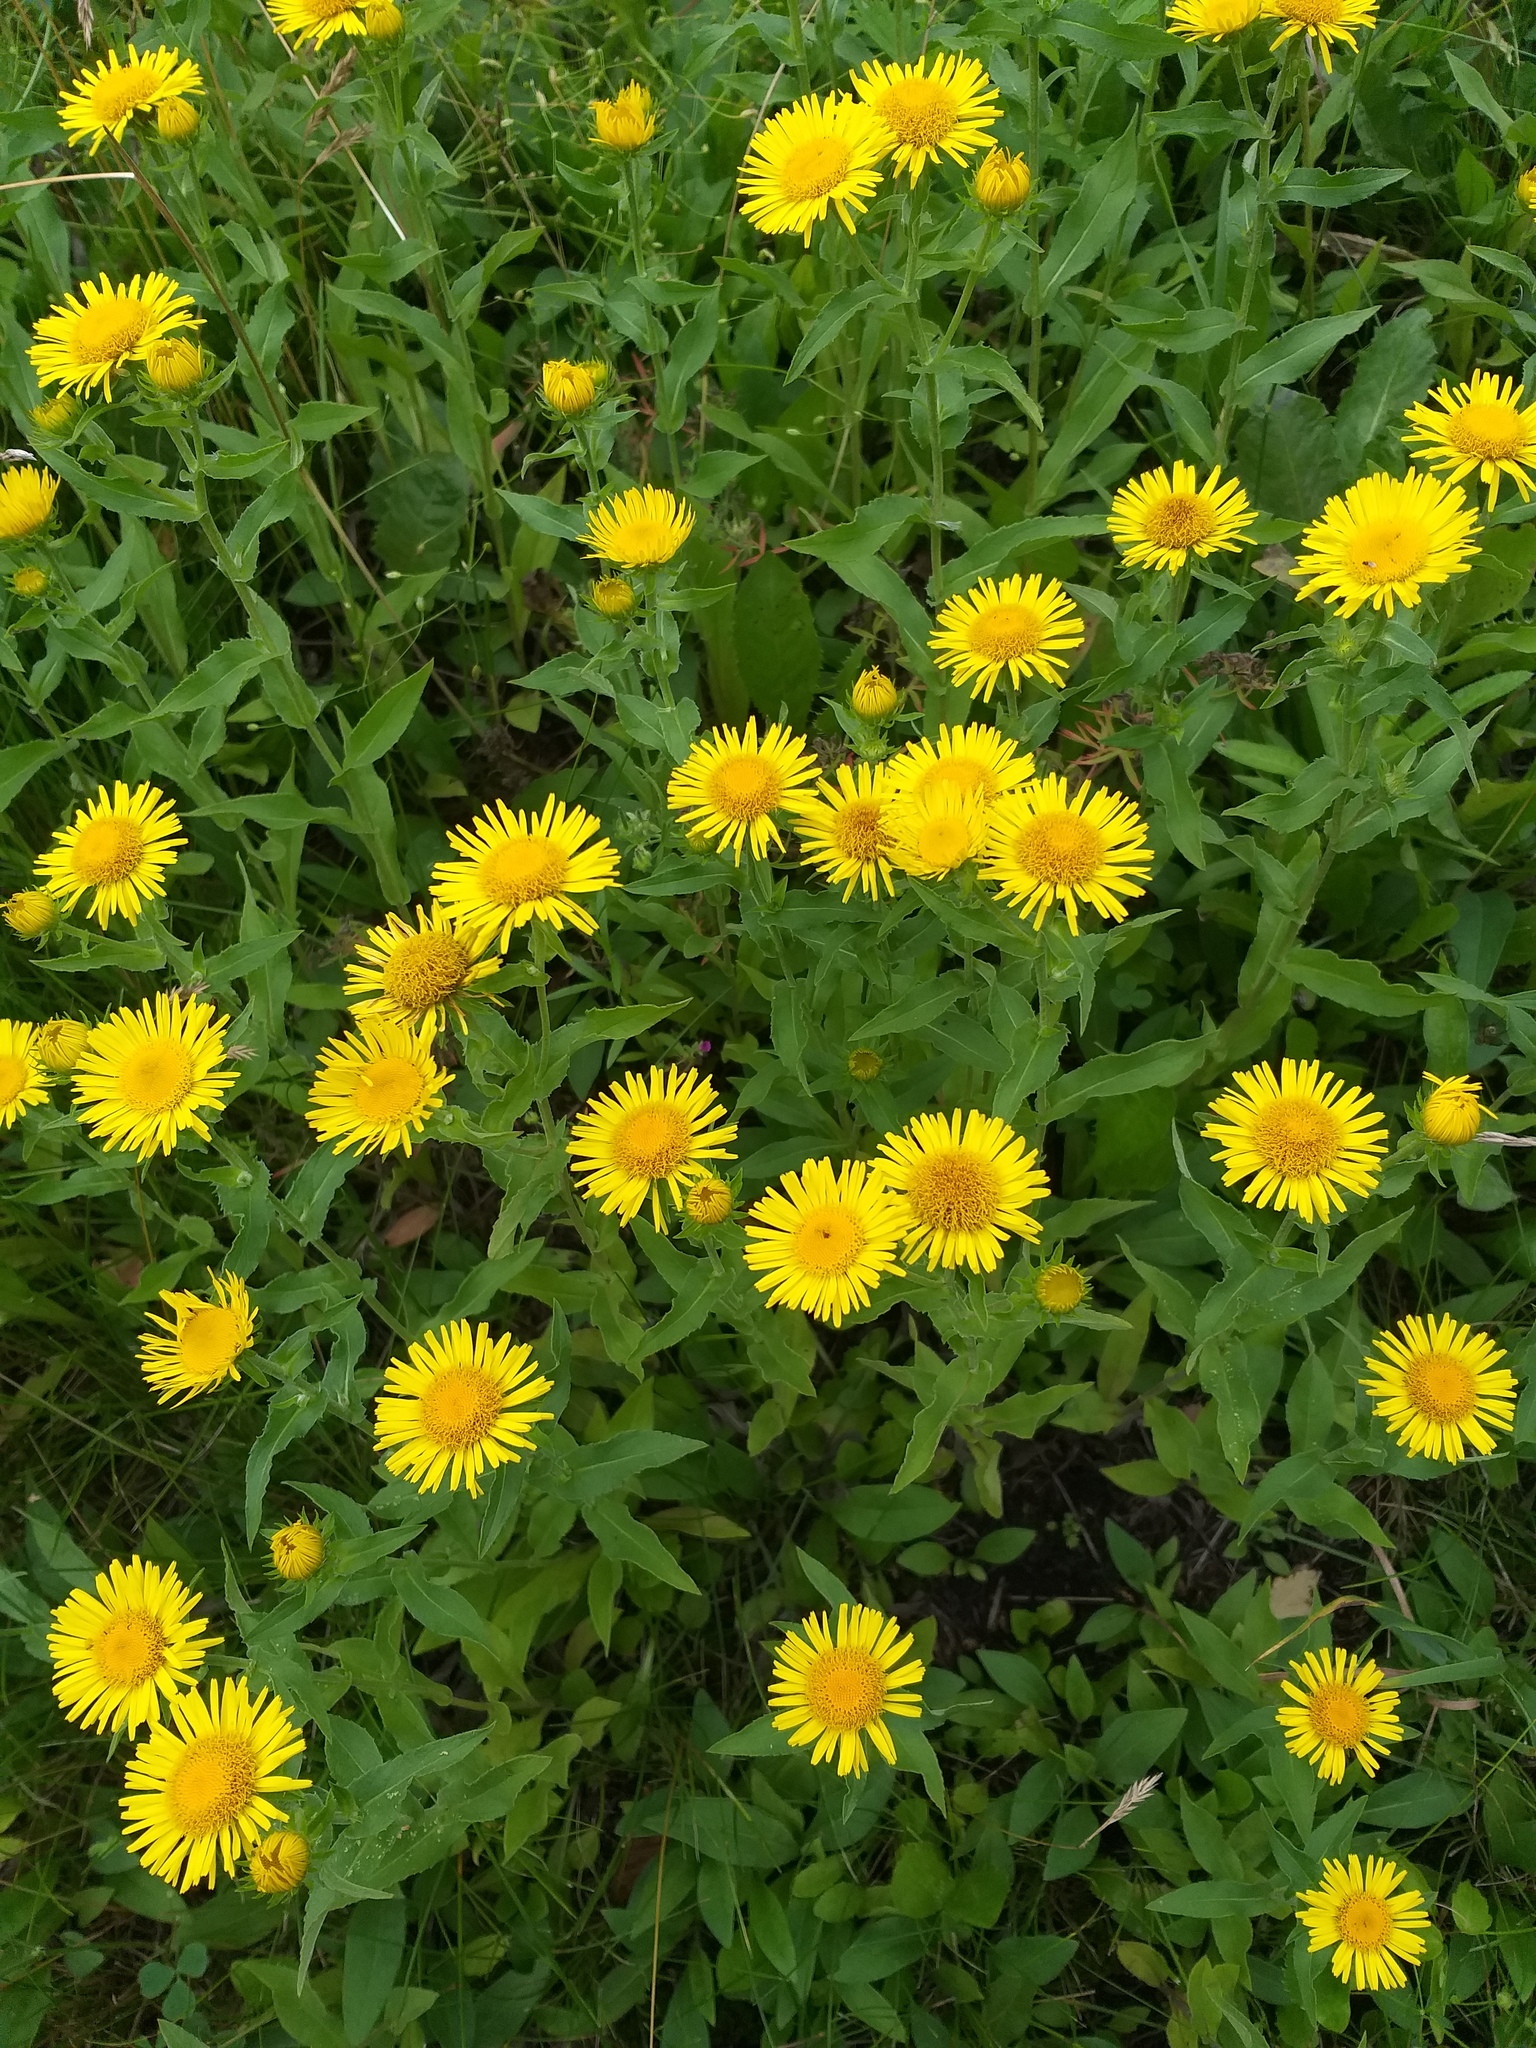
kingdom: Plantae
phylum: Tracheophyta
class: Magnoliopsida
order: Asterales
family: Asteraceae
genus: Pentanema
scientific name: Pentanema britannicum
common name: British elecampane
